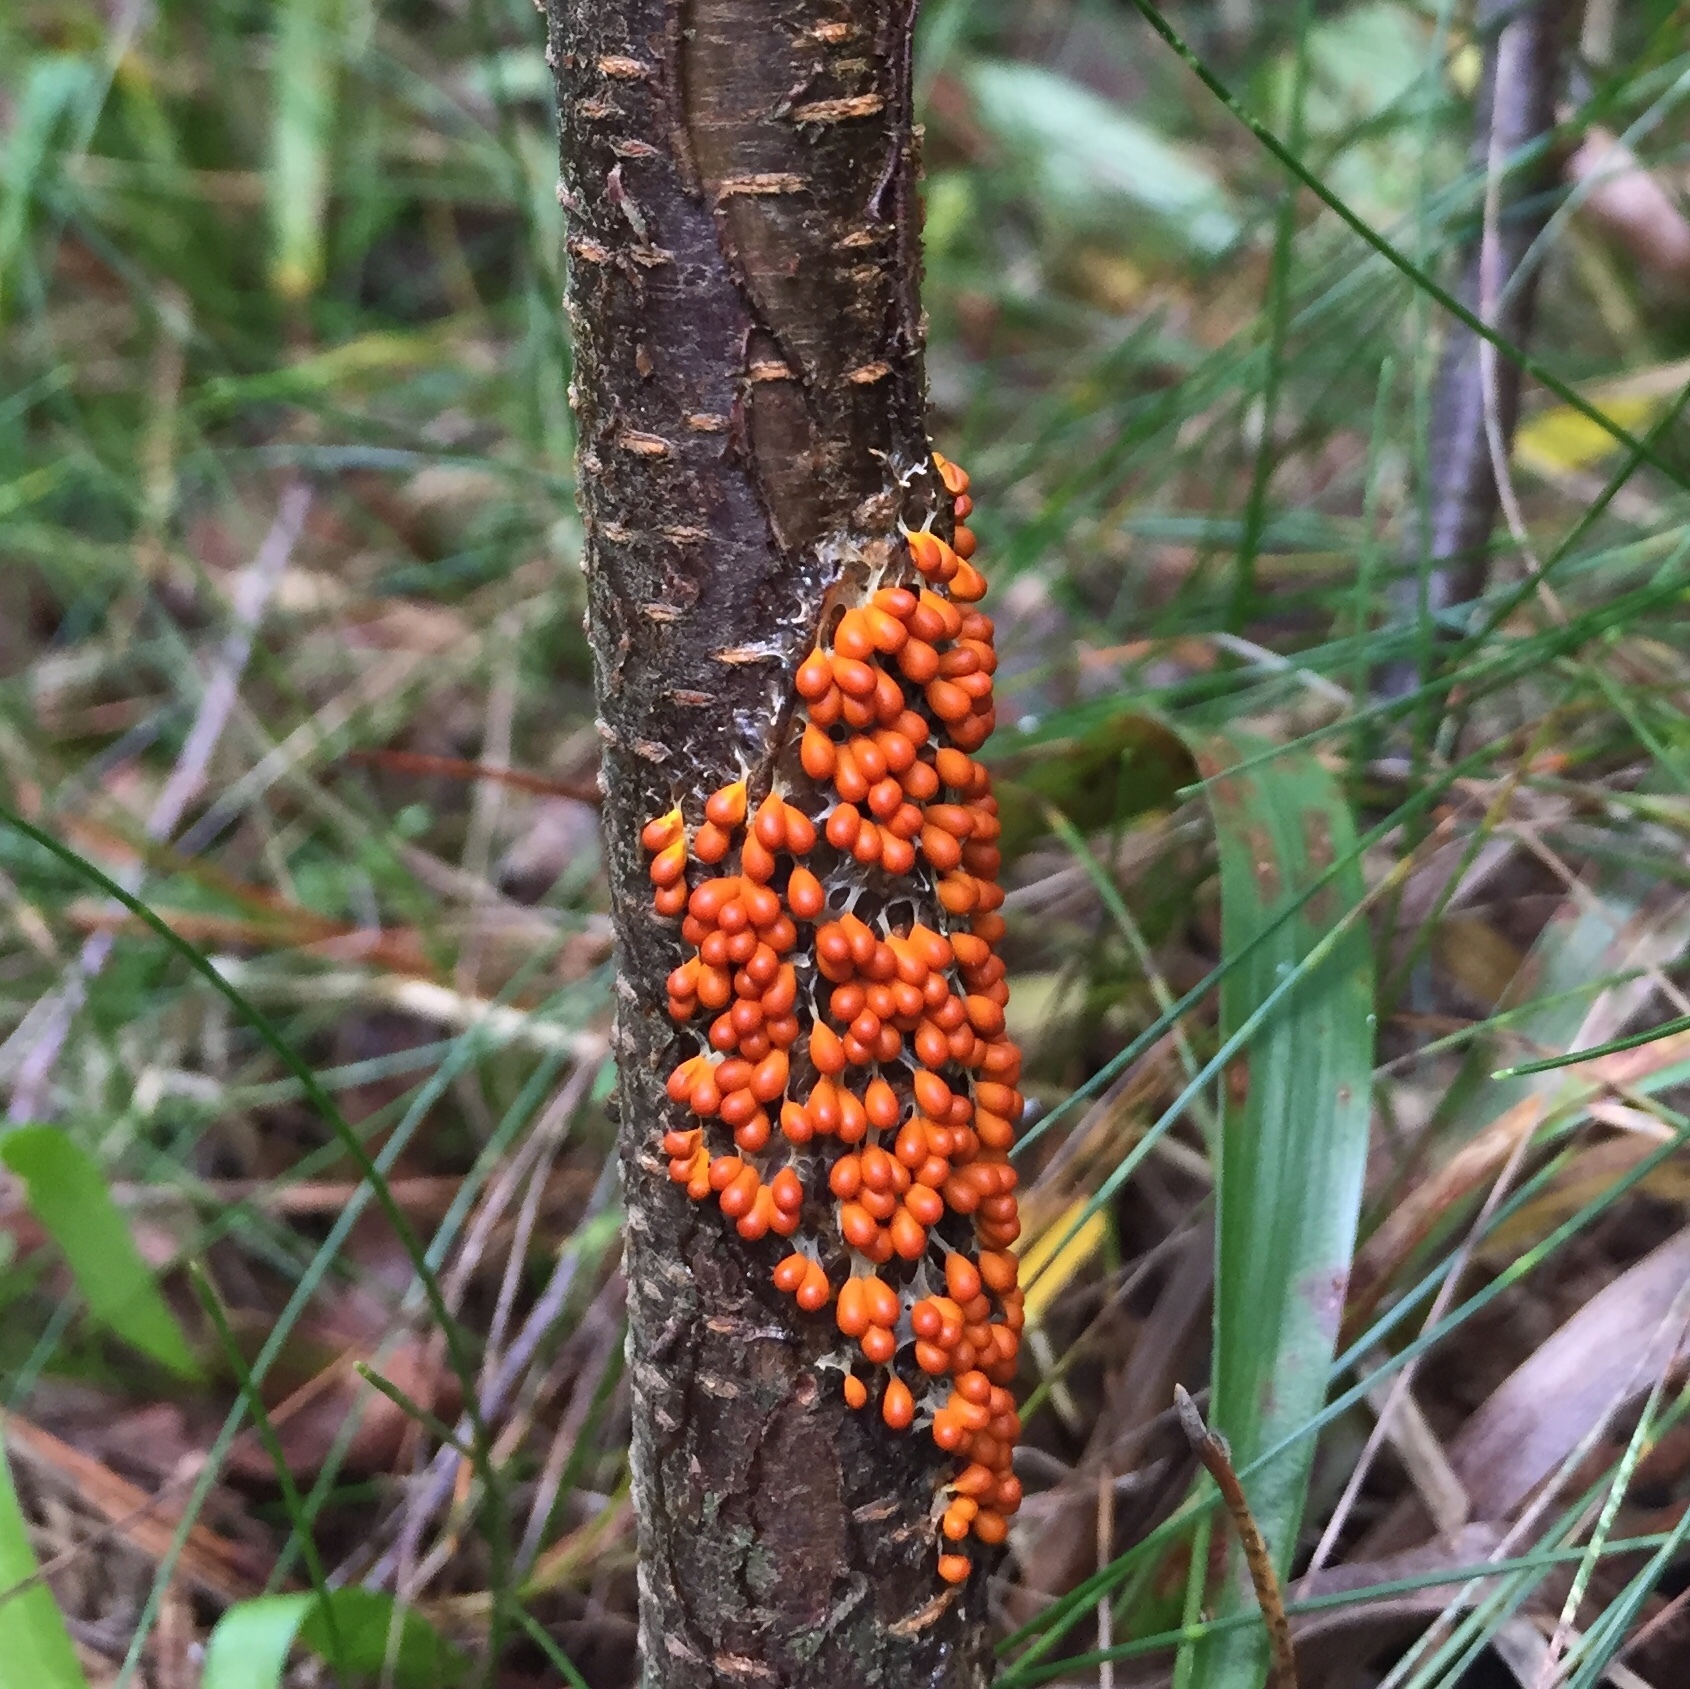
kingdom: Protozoa
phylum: Mycetozoa
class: Myxomycetes
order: Physarales
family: Physaraceae
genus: Leocarpus
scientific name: Leocarpus fragilis
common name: Insect-egg slime
